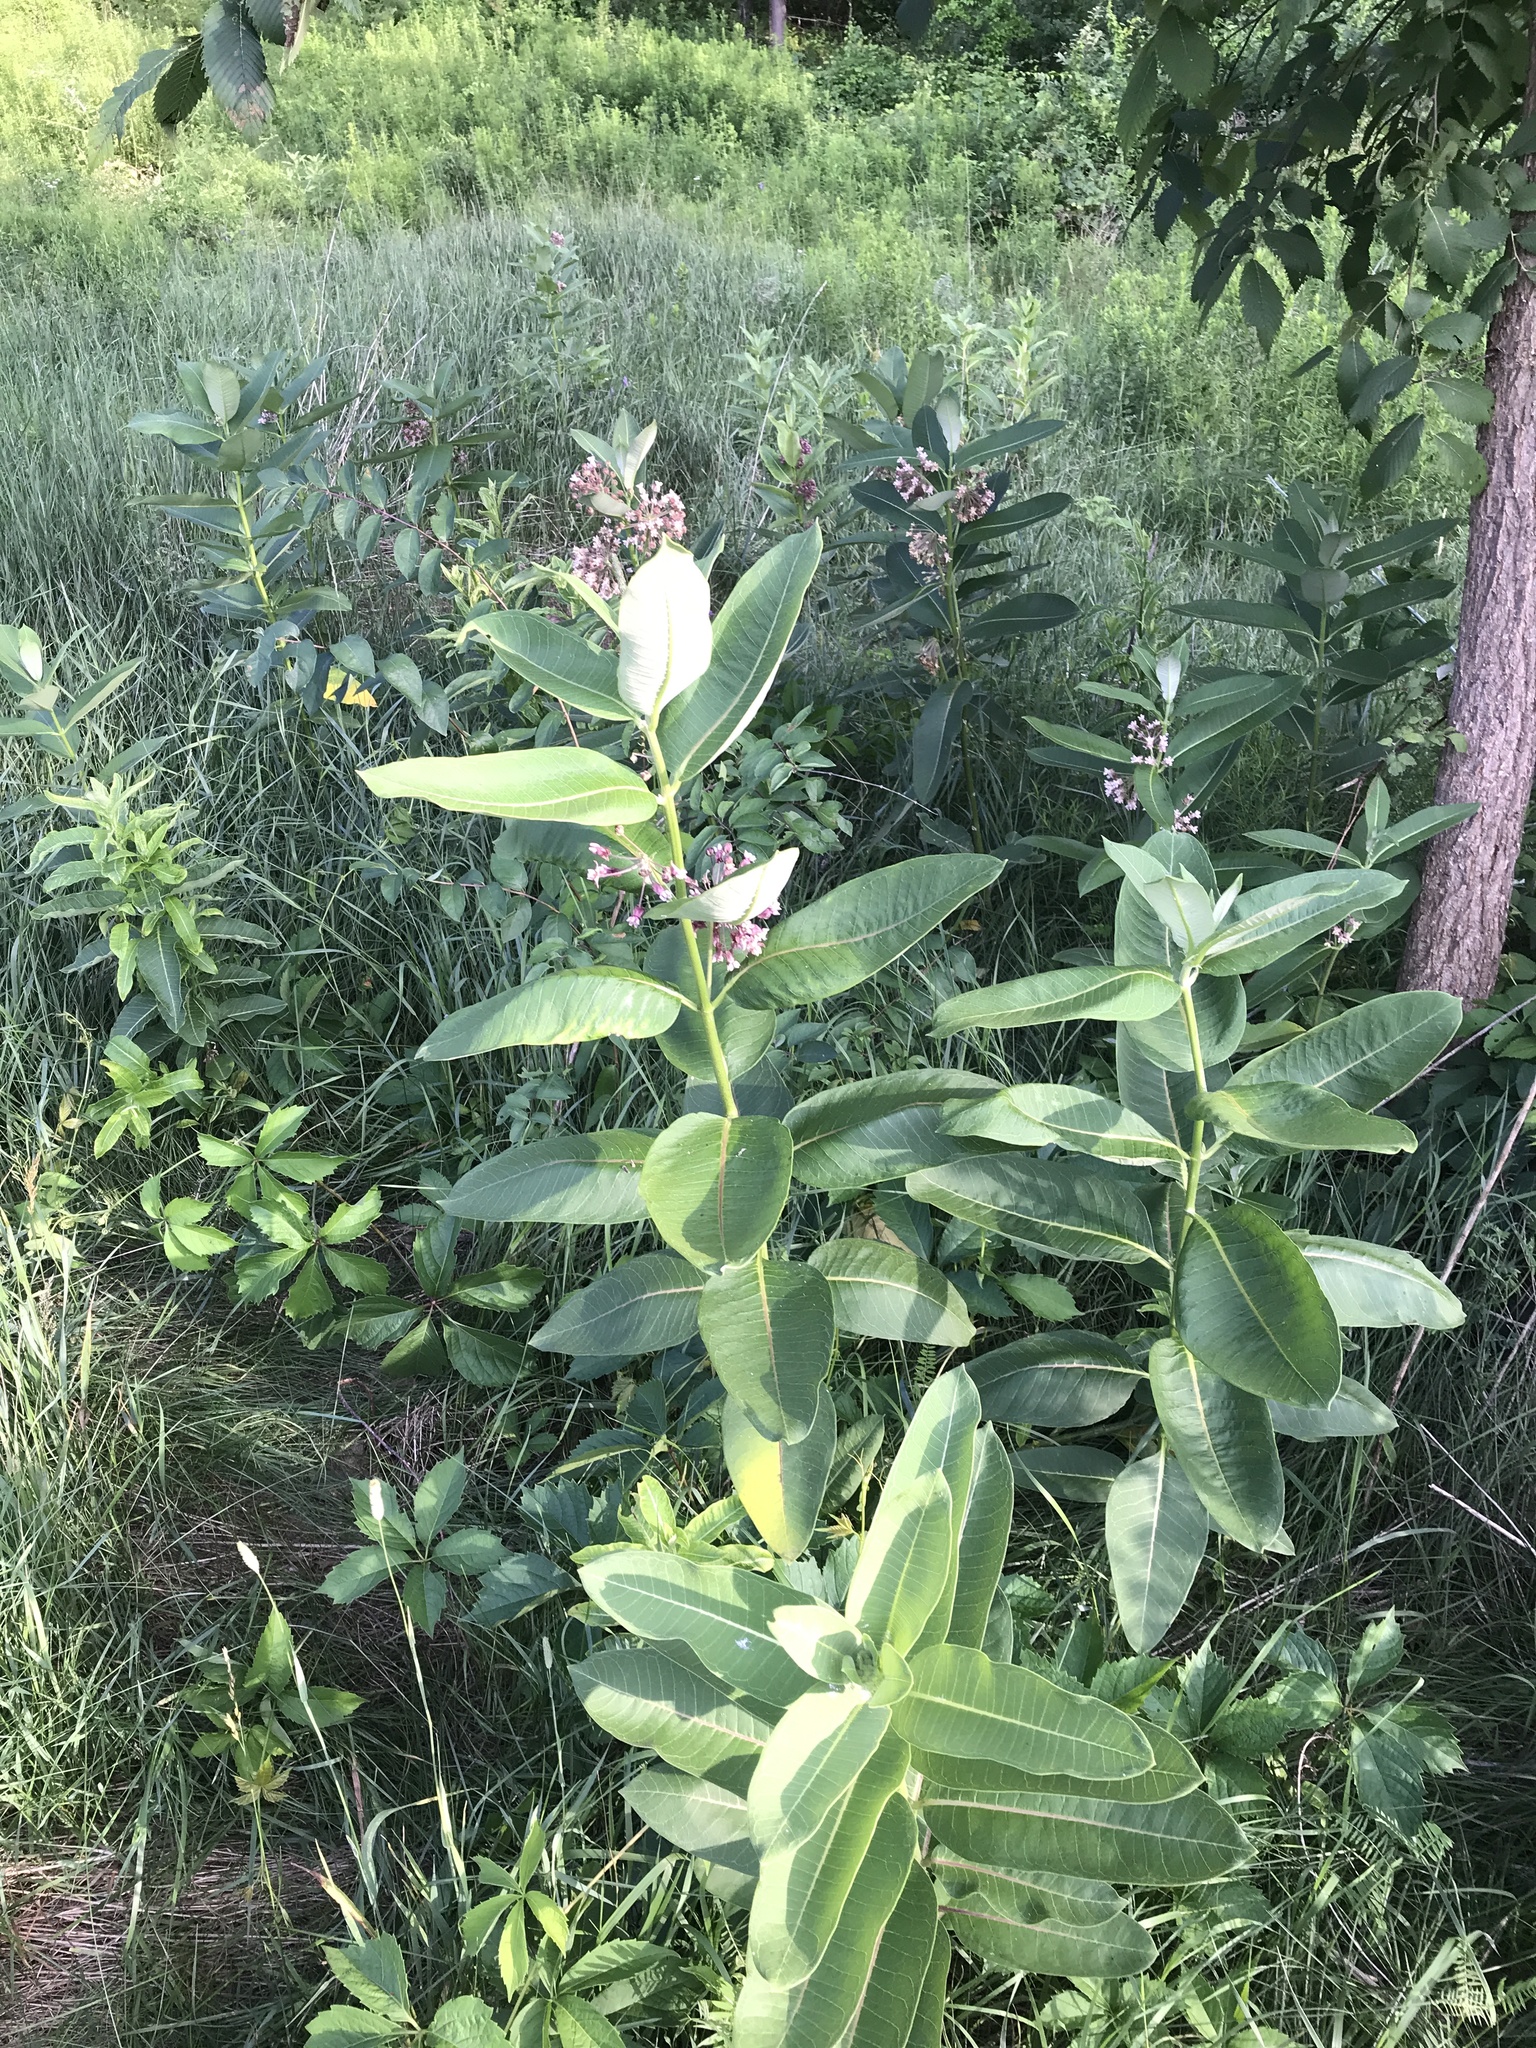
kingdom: Plantae
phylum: Tracheophyta
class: Magnoliopsida
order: Gentianales
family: Apocynaceae
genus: Asclepias
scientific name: Asclepias syriaca
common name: Common milkweed
